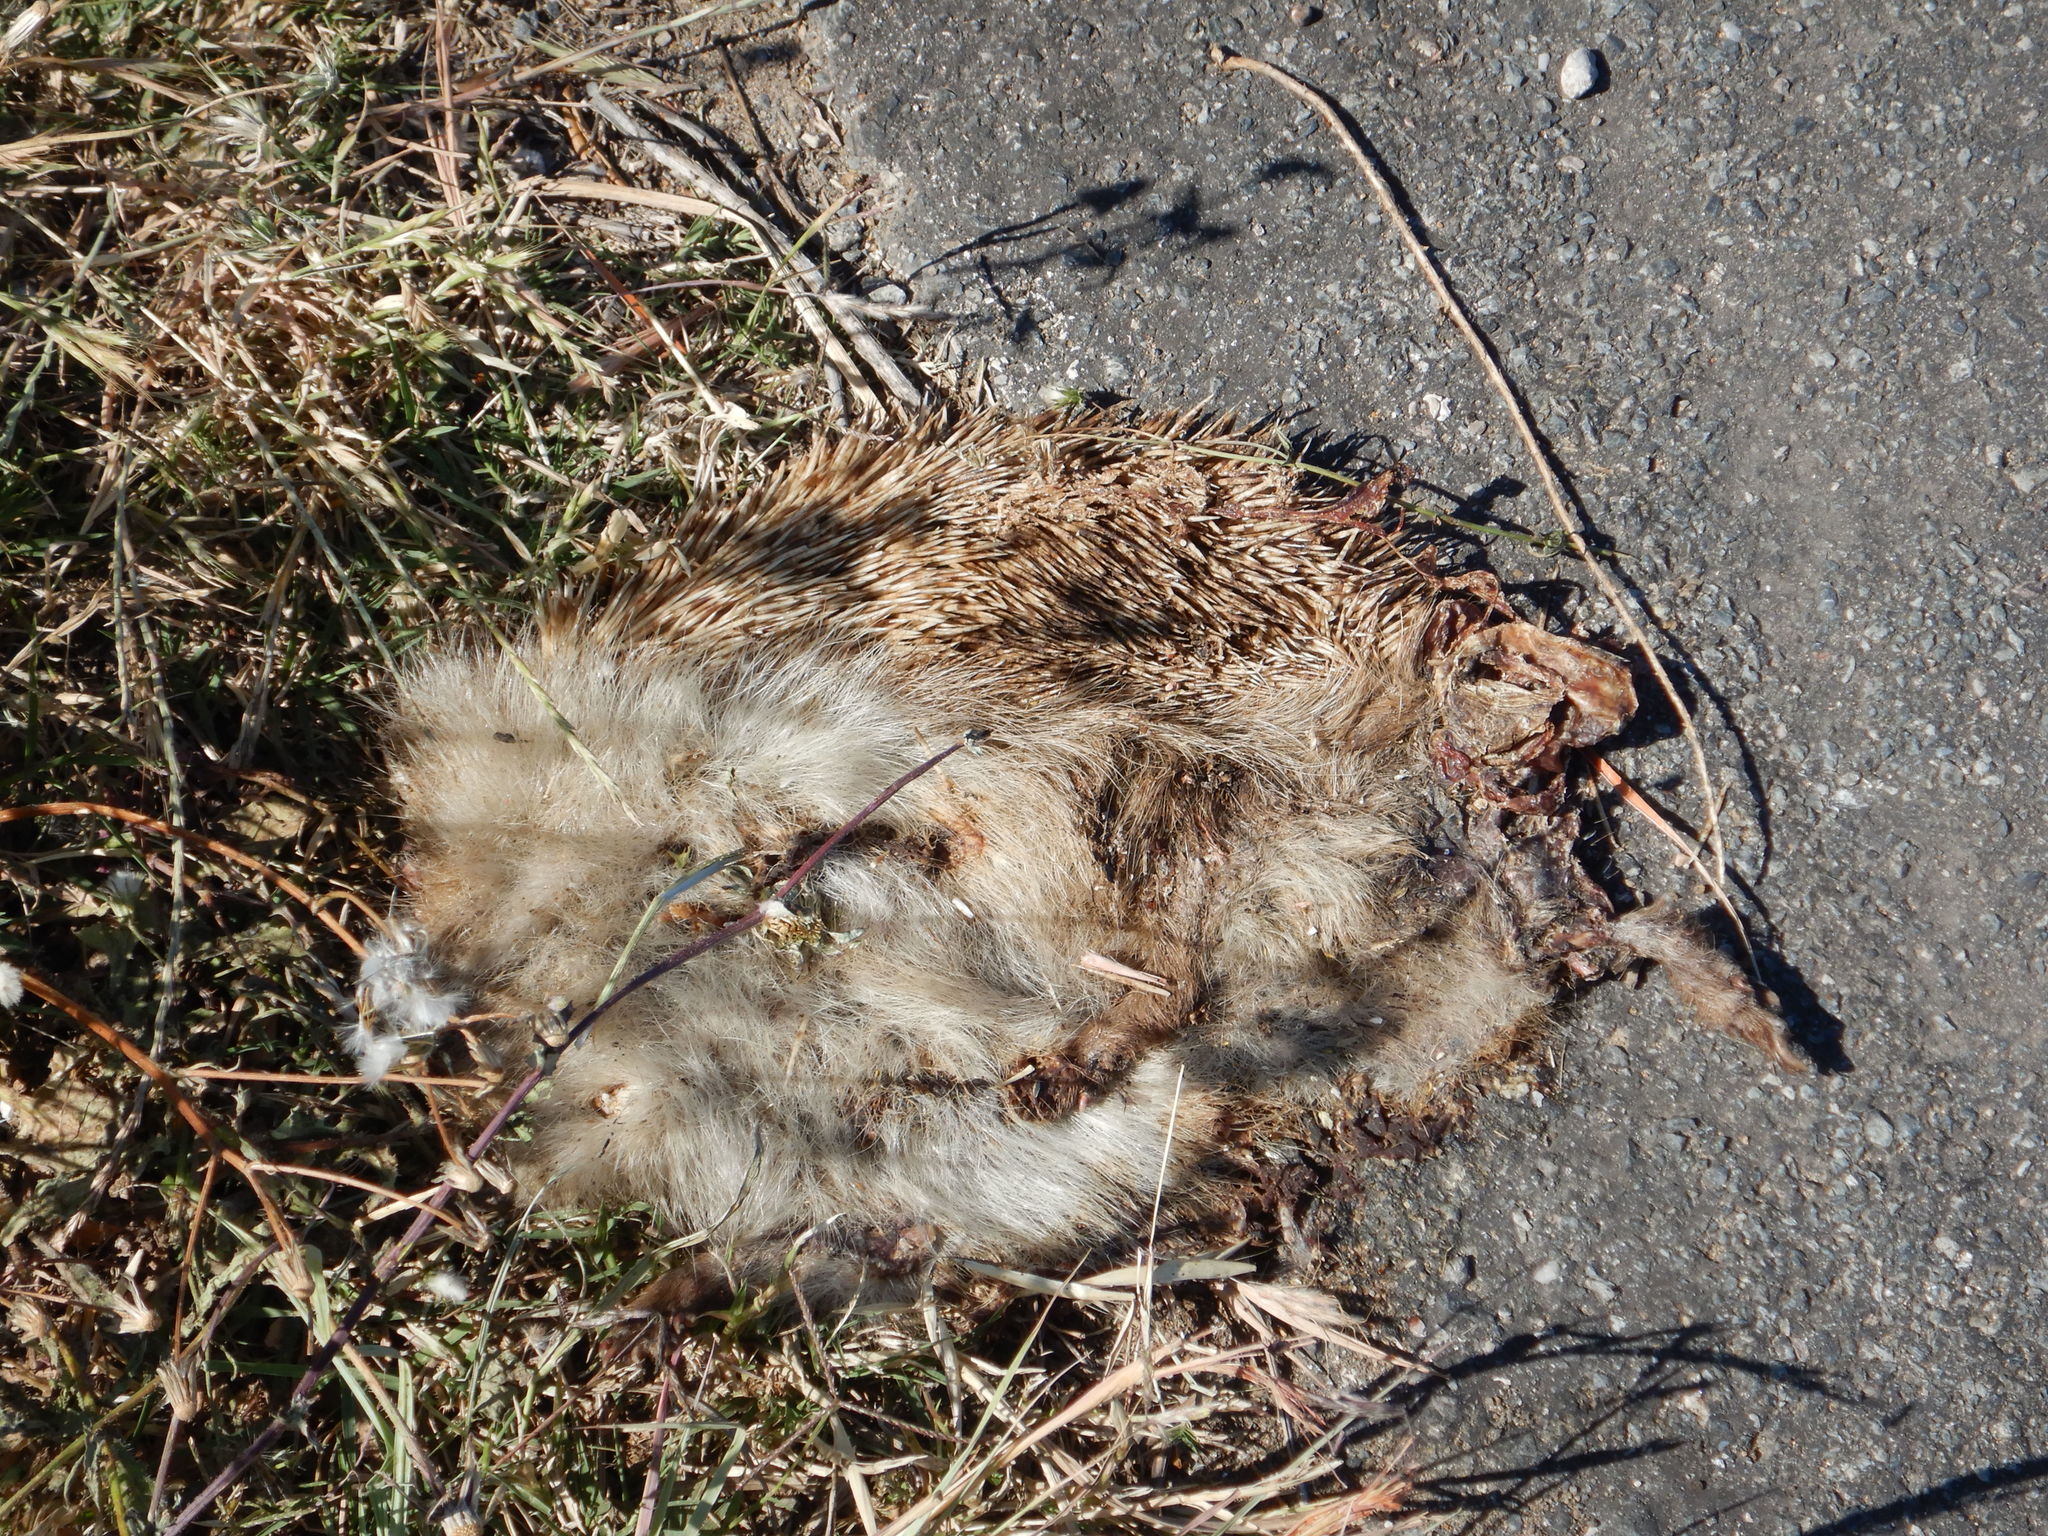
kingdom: Animalia
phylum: Chordata
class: Mammalia
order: Erinaceomorpha
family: Erinaceidae
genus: Erinaceus
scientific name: Erinaceus europaeus
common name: West european hedgehog
